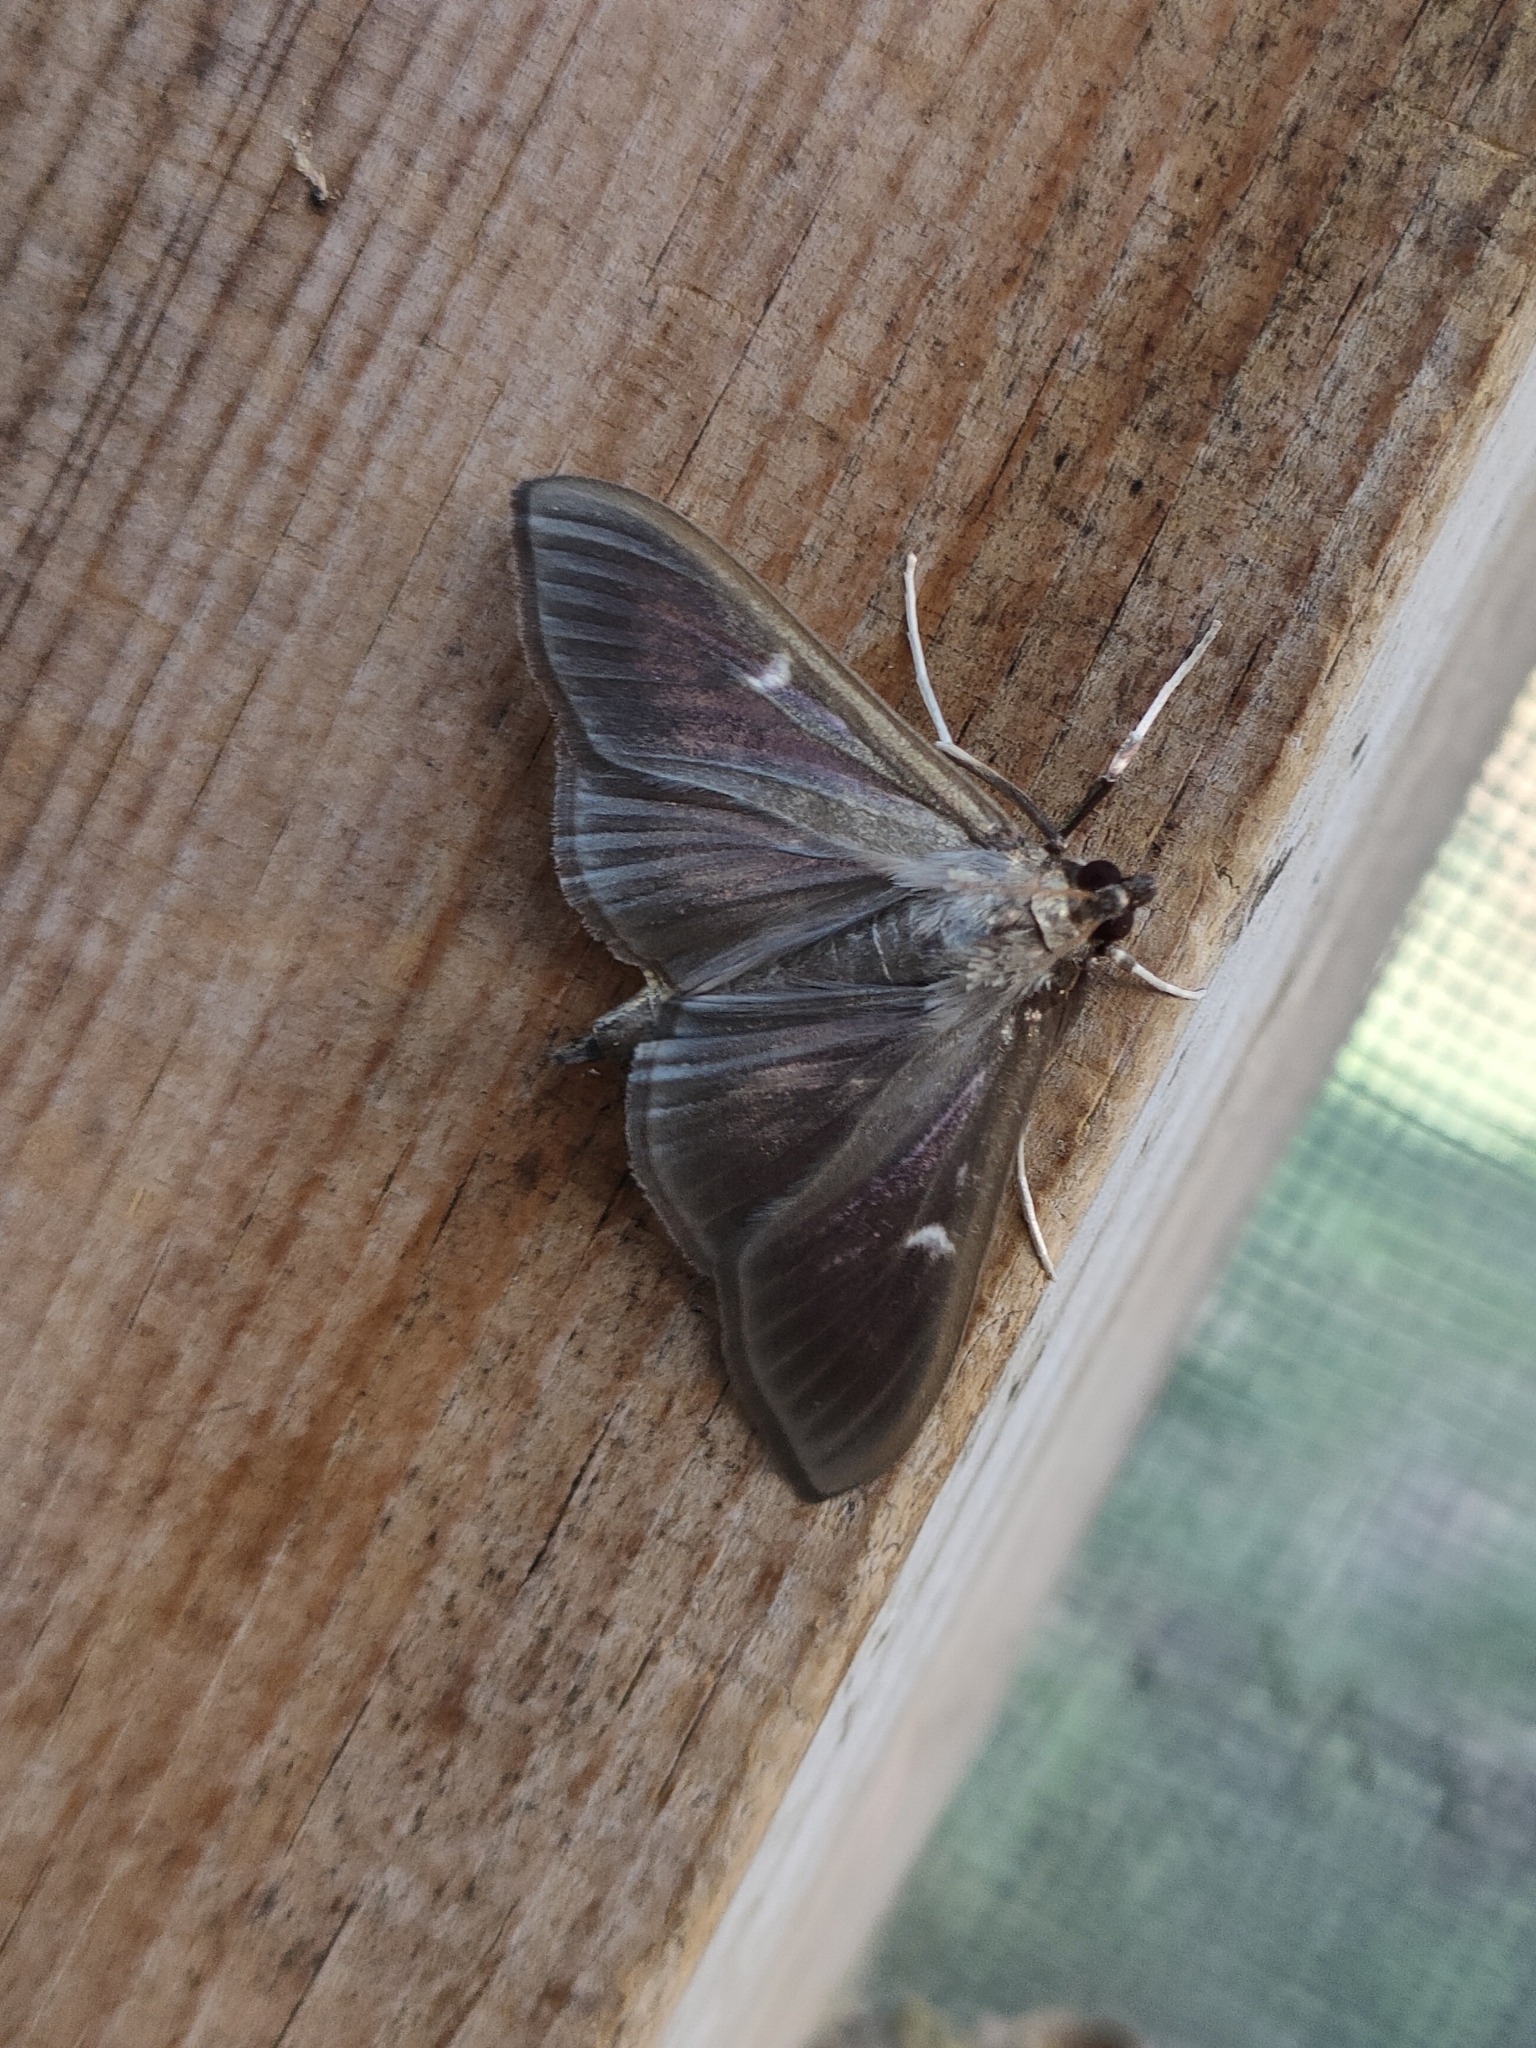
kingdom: Animalia
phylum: Arthropoda
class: Insecta
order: Lepidoptera
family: Crambidae
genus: Cydalima
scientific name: Cydalima perspectalis
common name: Box tree moth
